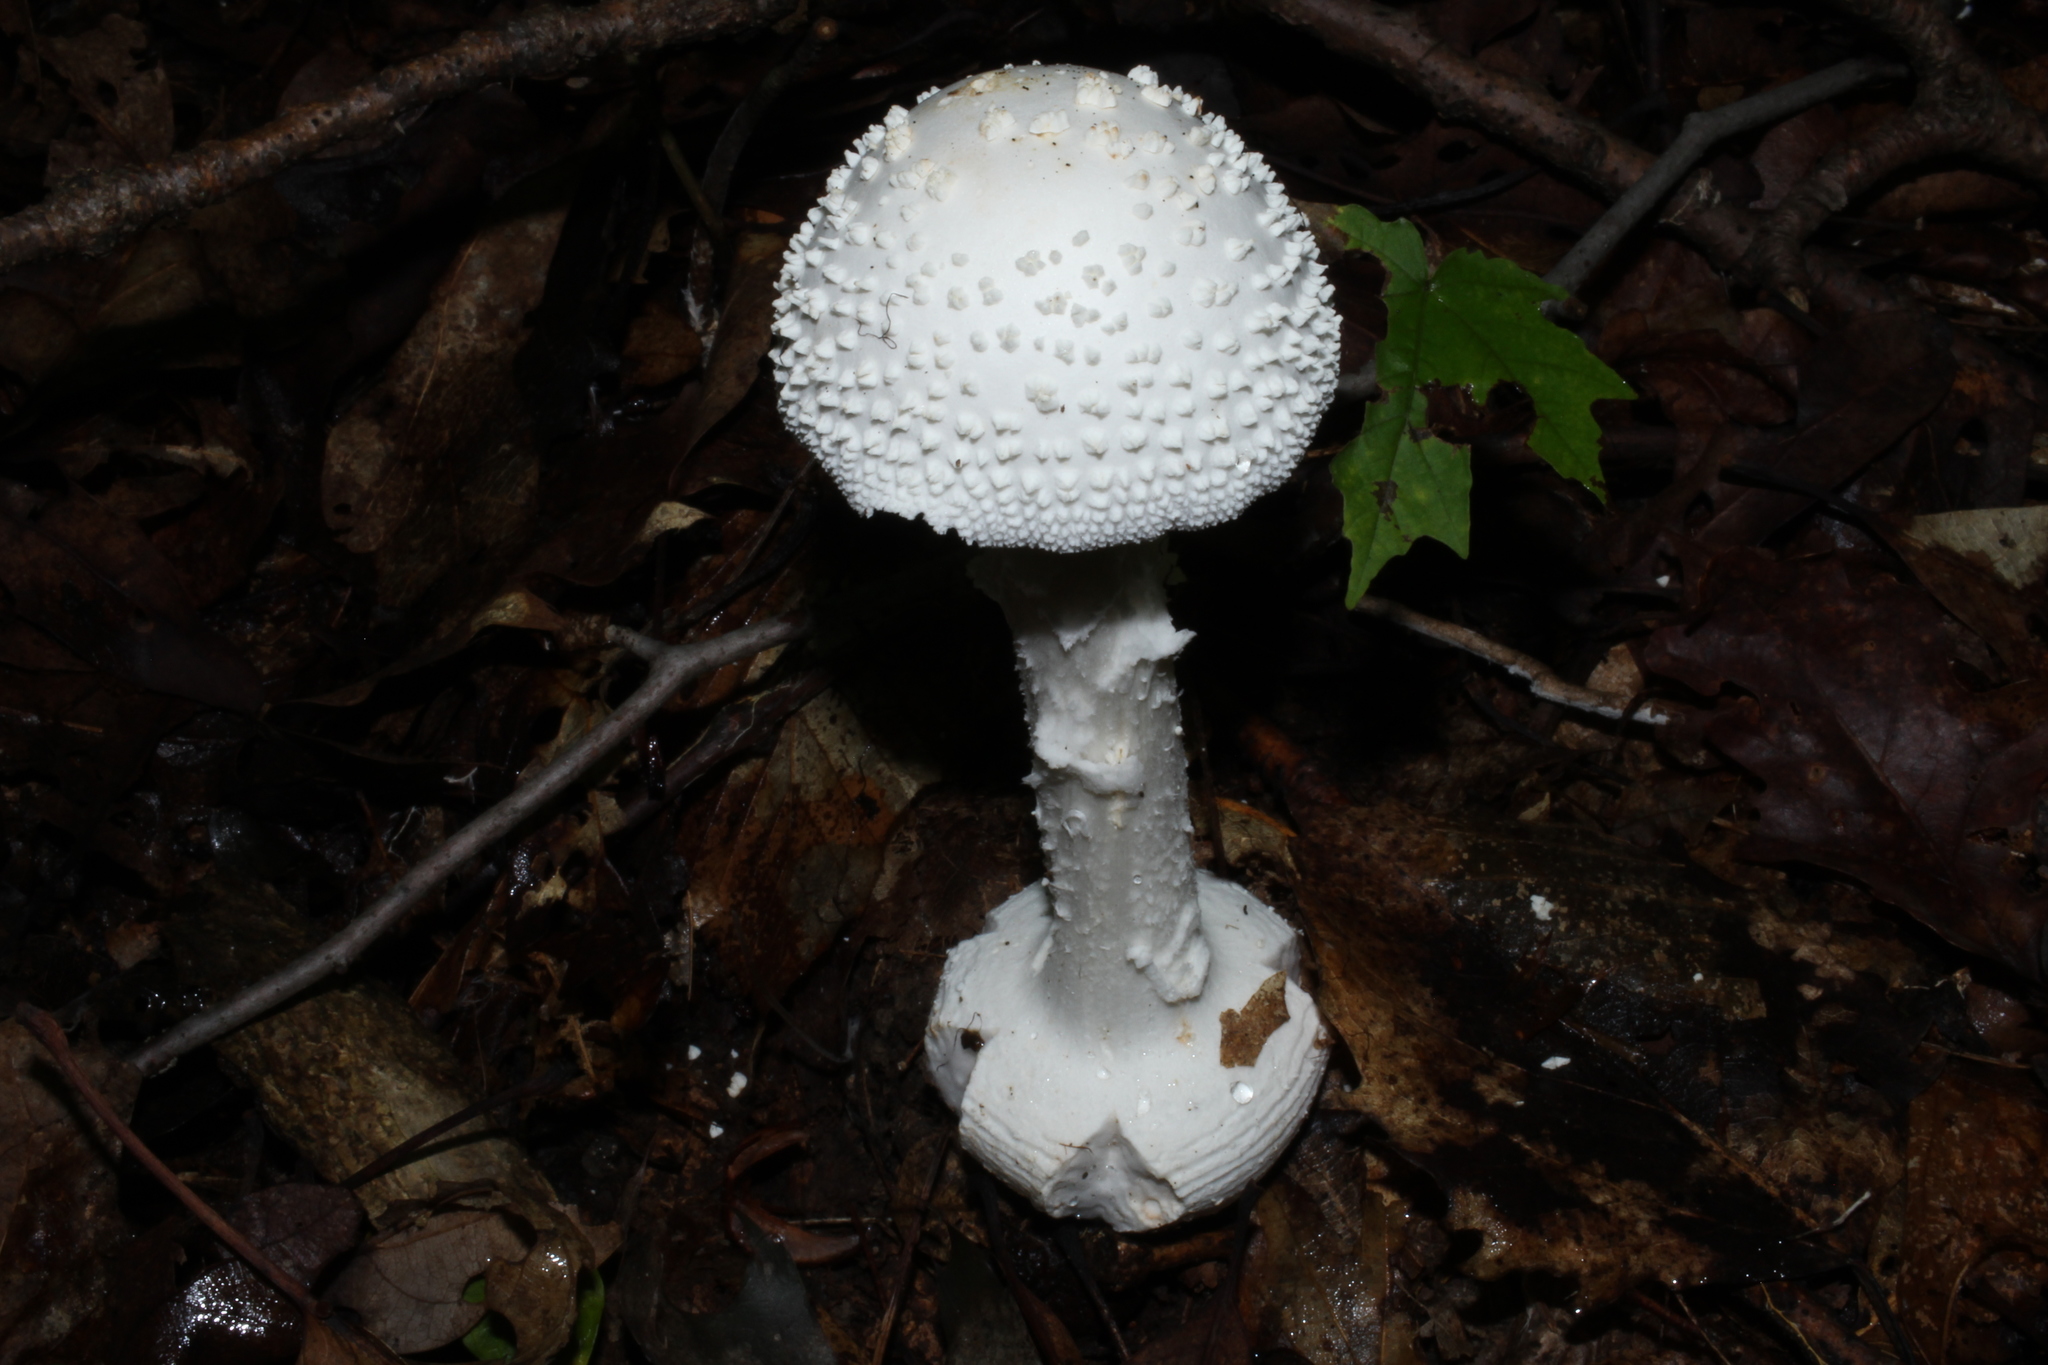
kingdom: Fungi
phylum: Basidiomycota
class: Agaricomycetes
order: Agaricales
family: Amanitaceae
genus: Amanita
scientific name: Amanita abrupta
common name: American abrupt-bulbed lepidella
